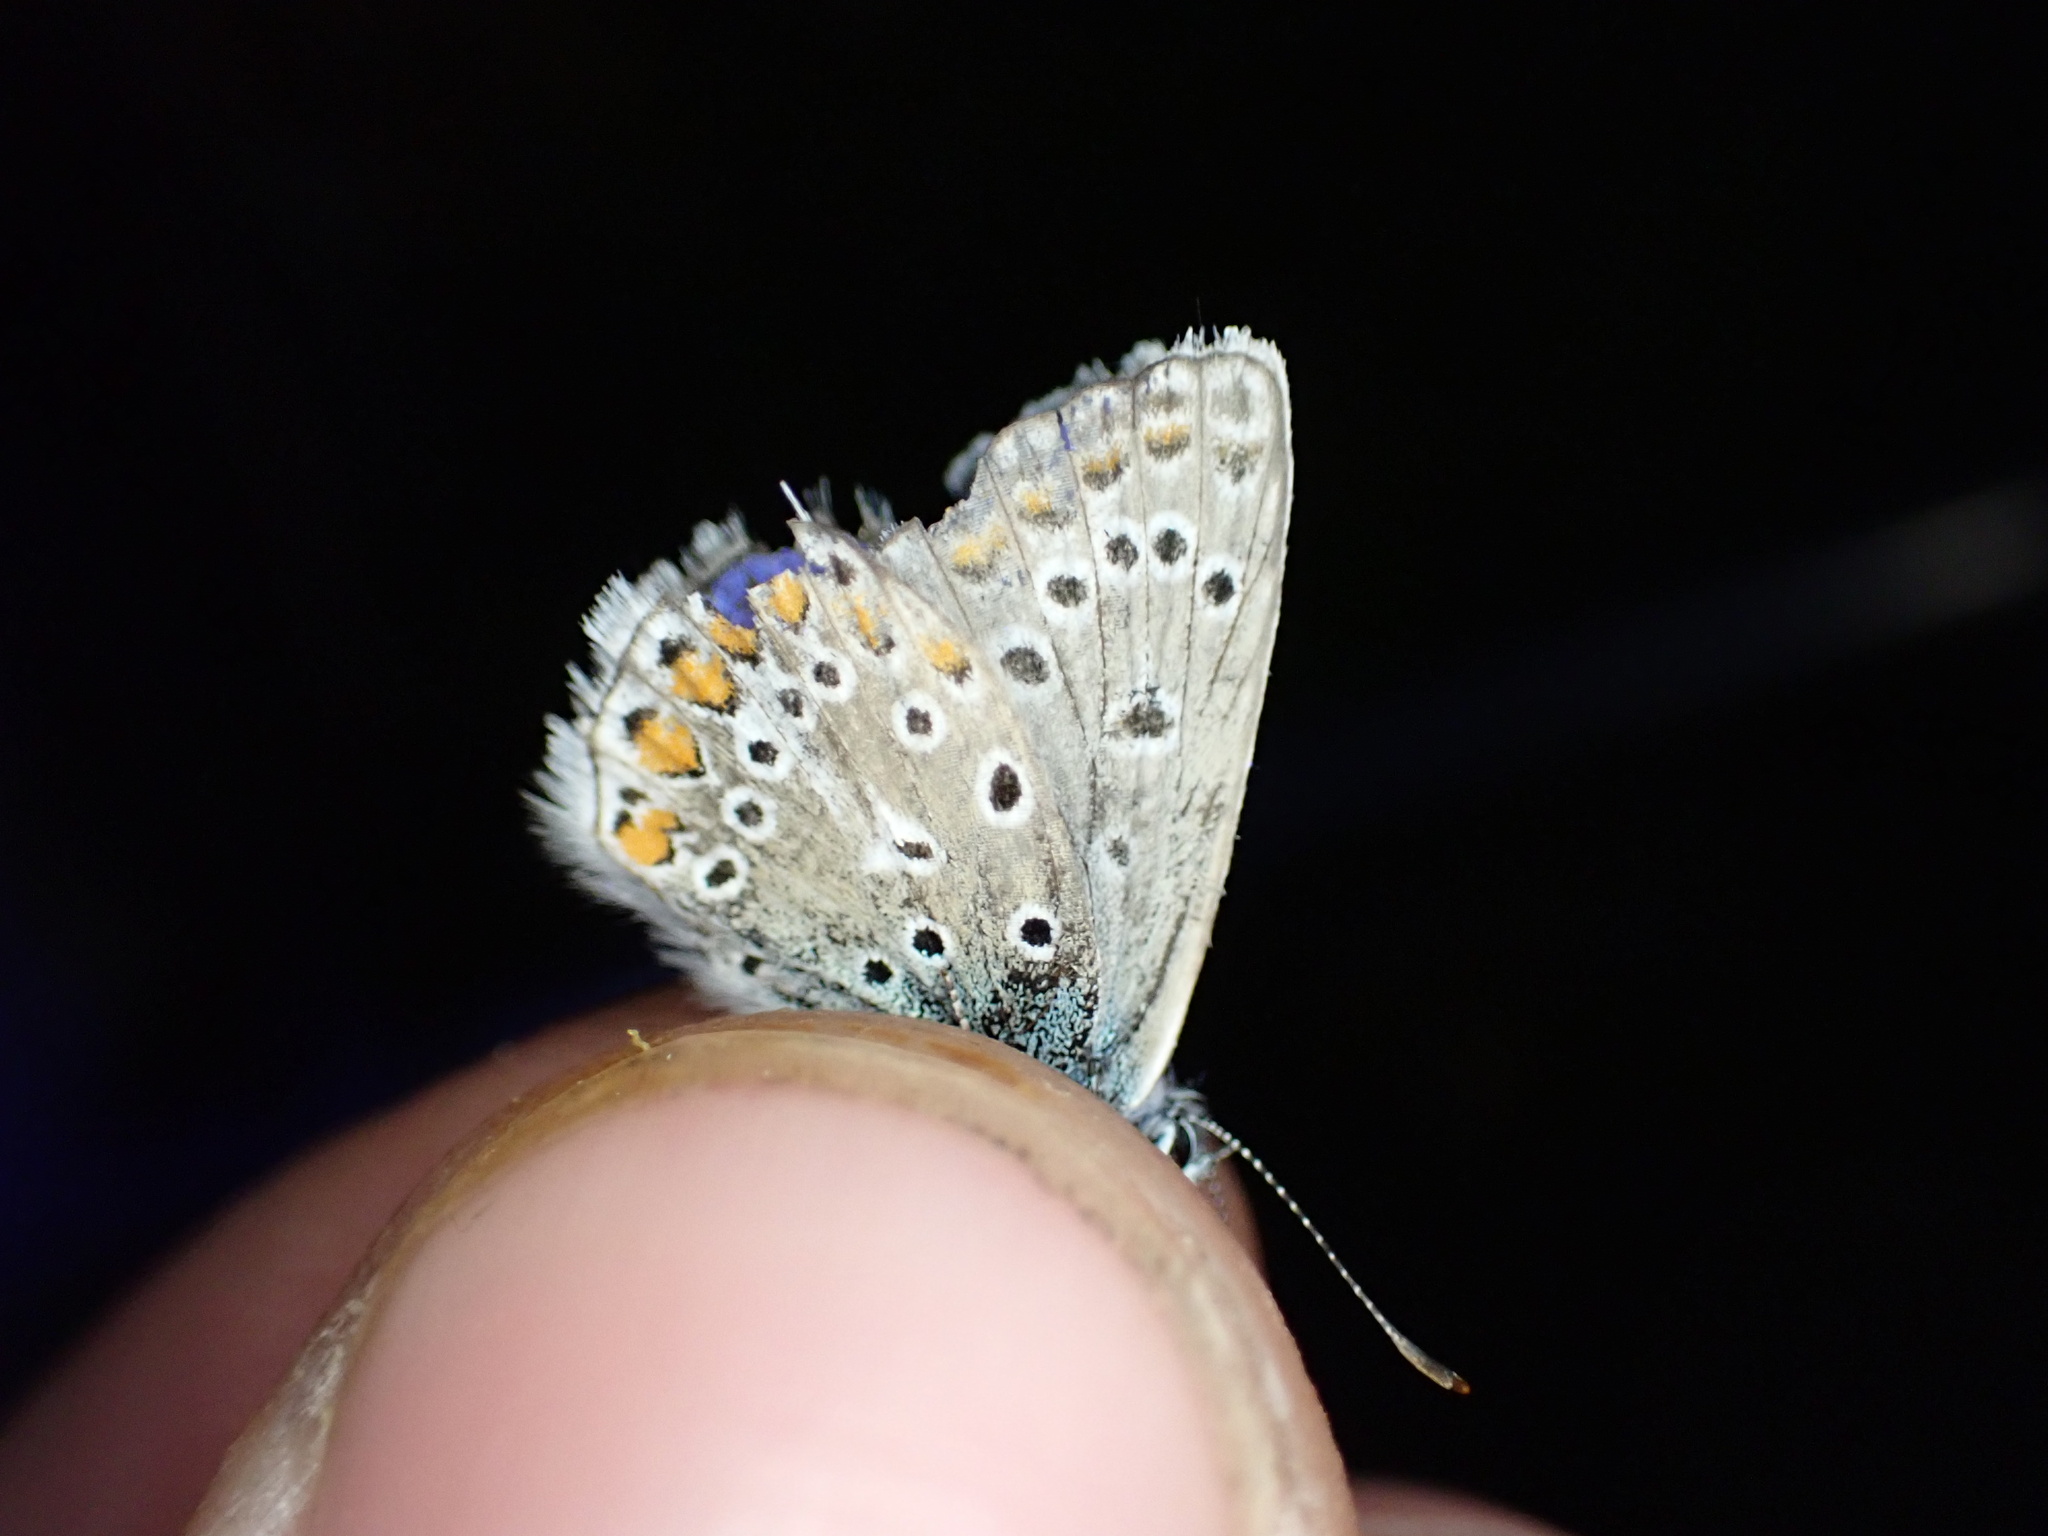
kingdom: Animalia
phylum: Arthropoda
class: Insecta
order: Lepidoptera
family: Lycaenidae
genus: Polyommatus
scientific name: Polyommatus icarus
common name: Common blue
